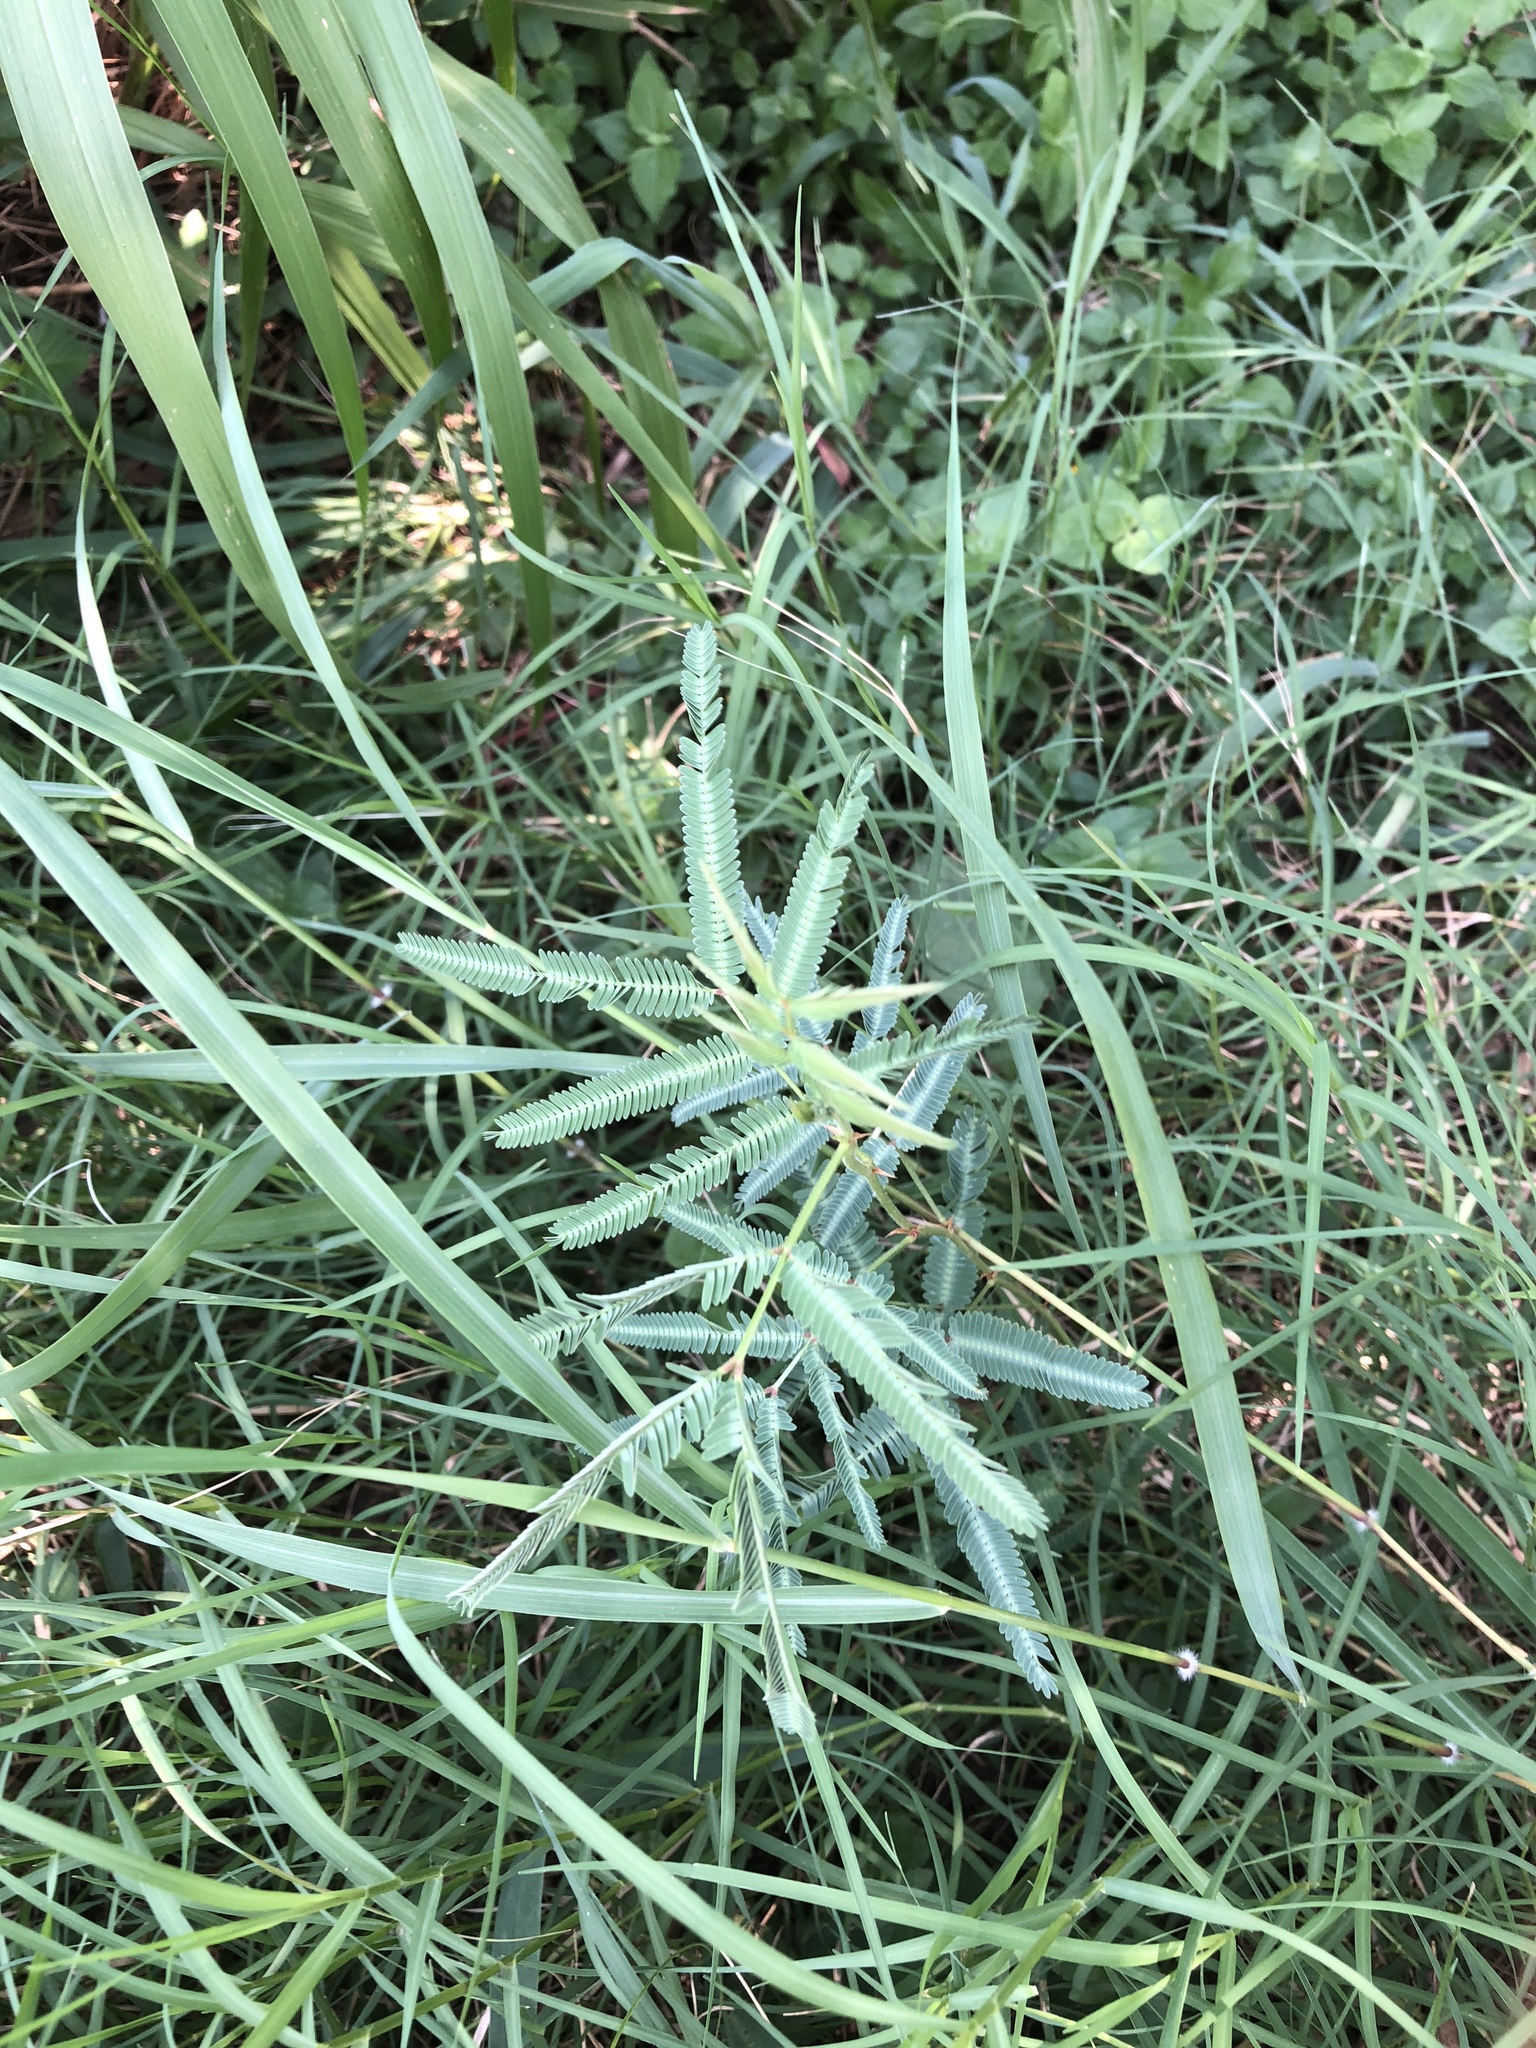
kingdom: Plantae
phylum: Tracheophyta
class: Magnoliopsida
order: Fabales
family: Fabaceae
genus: Neptunia
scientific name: Neptunia pubescens
